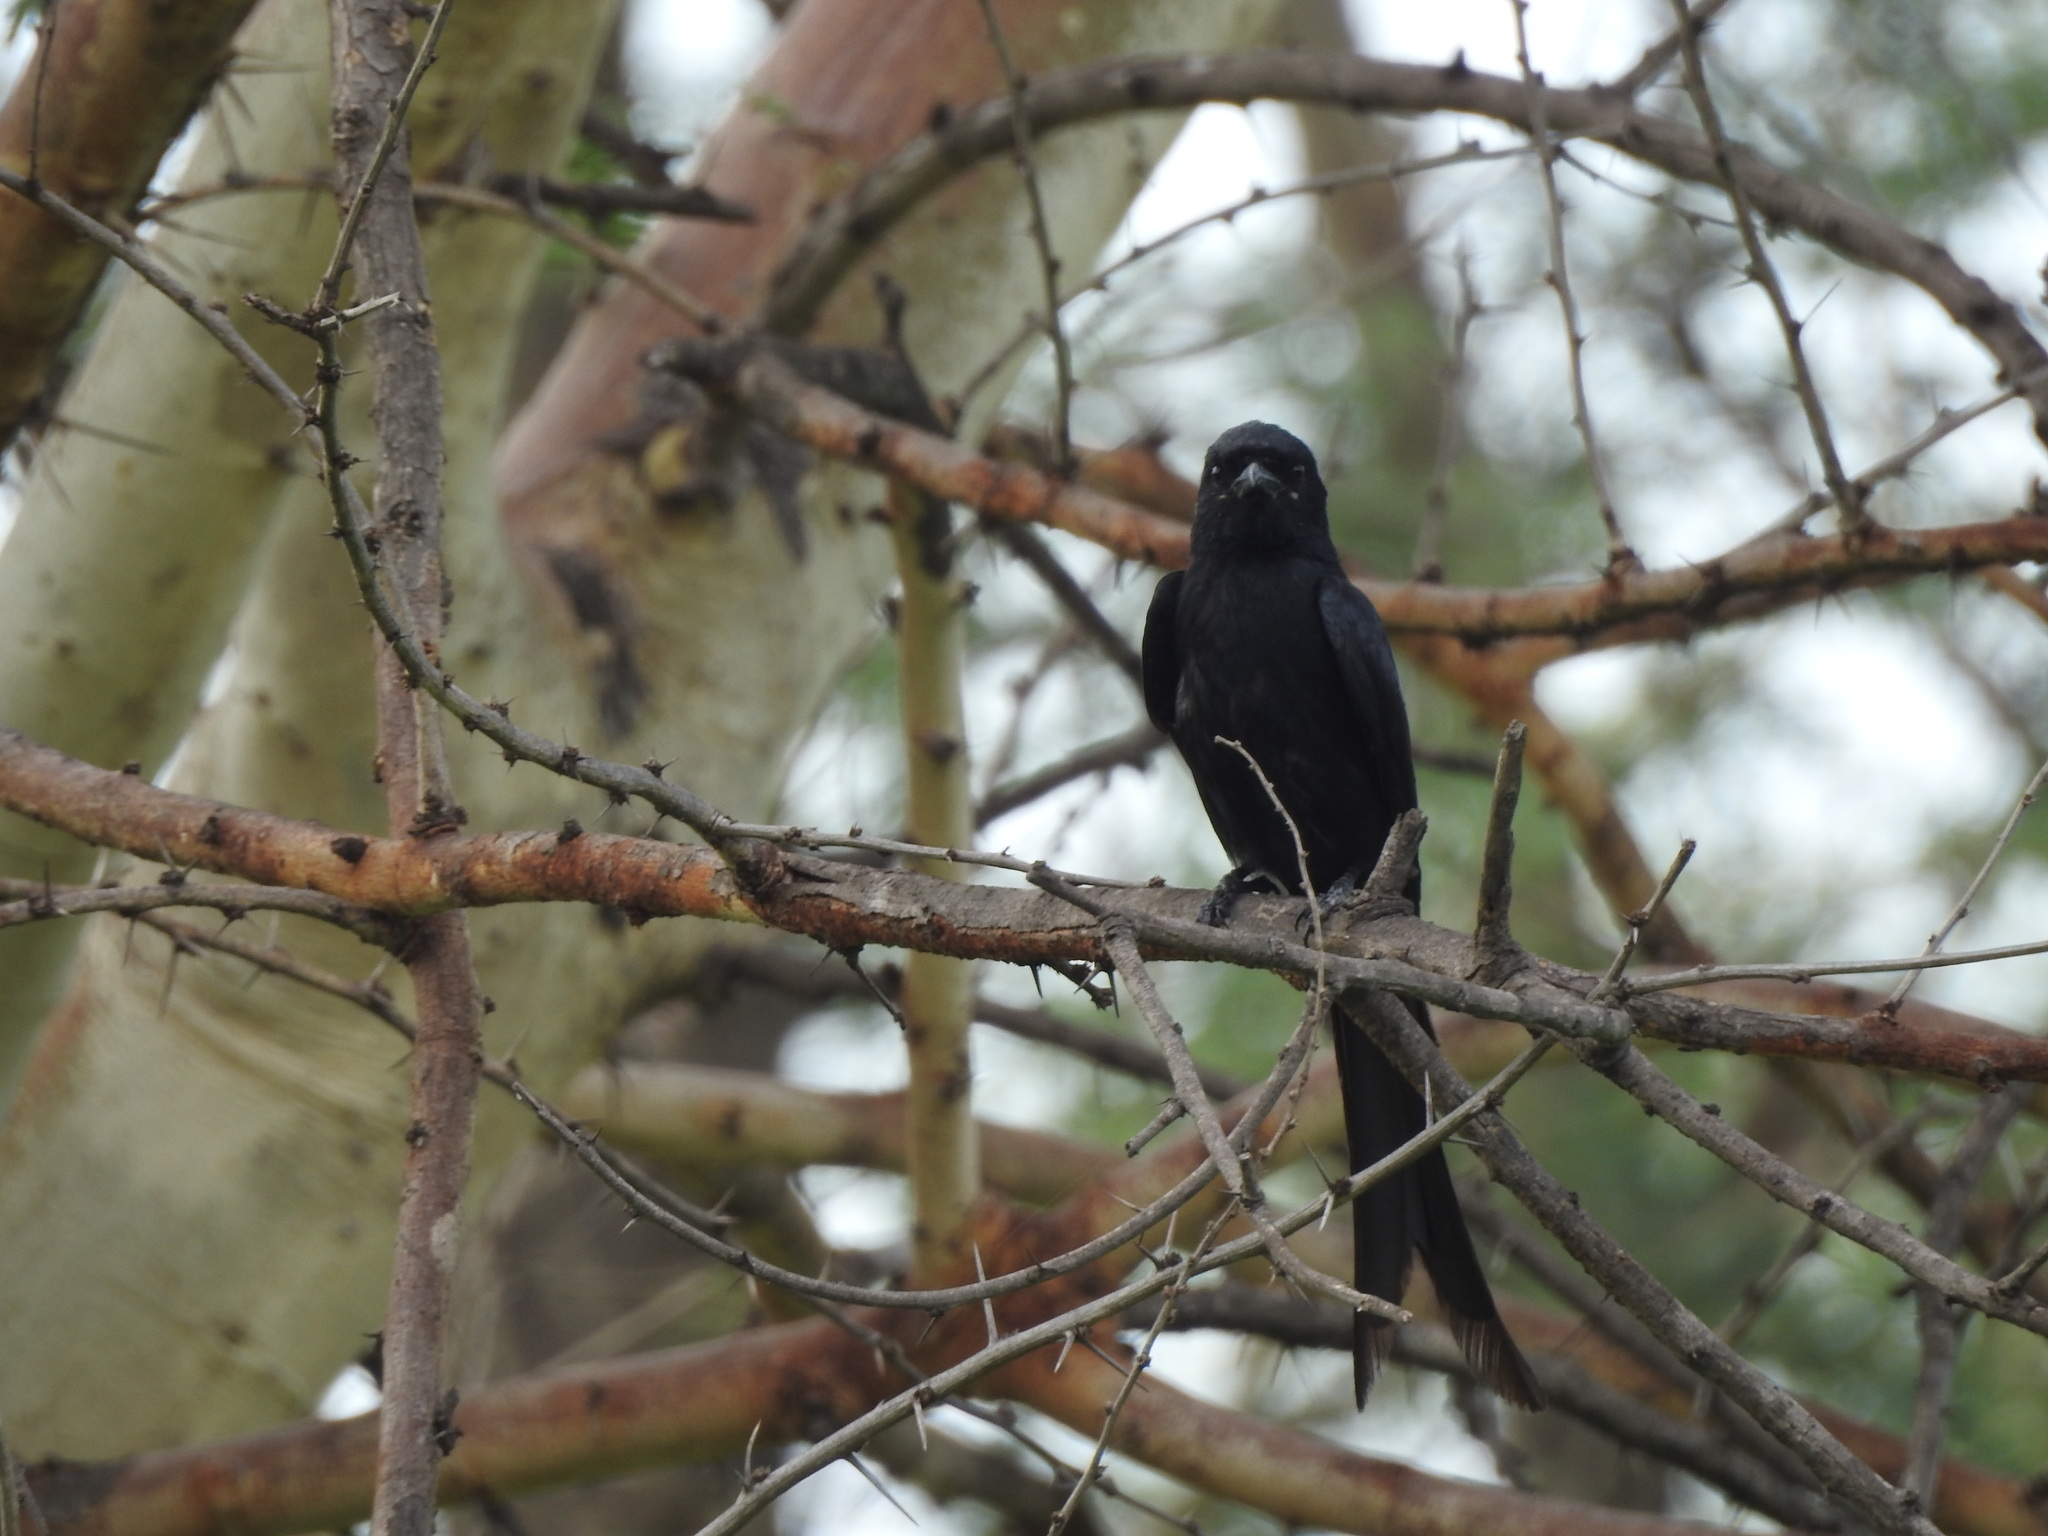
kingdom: Animalia
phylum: Chordata
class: Aves
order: Passeriformes
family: Dicruridae
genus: Dicrurus
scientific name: Dicrurus macrocercus
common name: Black drongo
